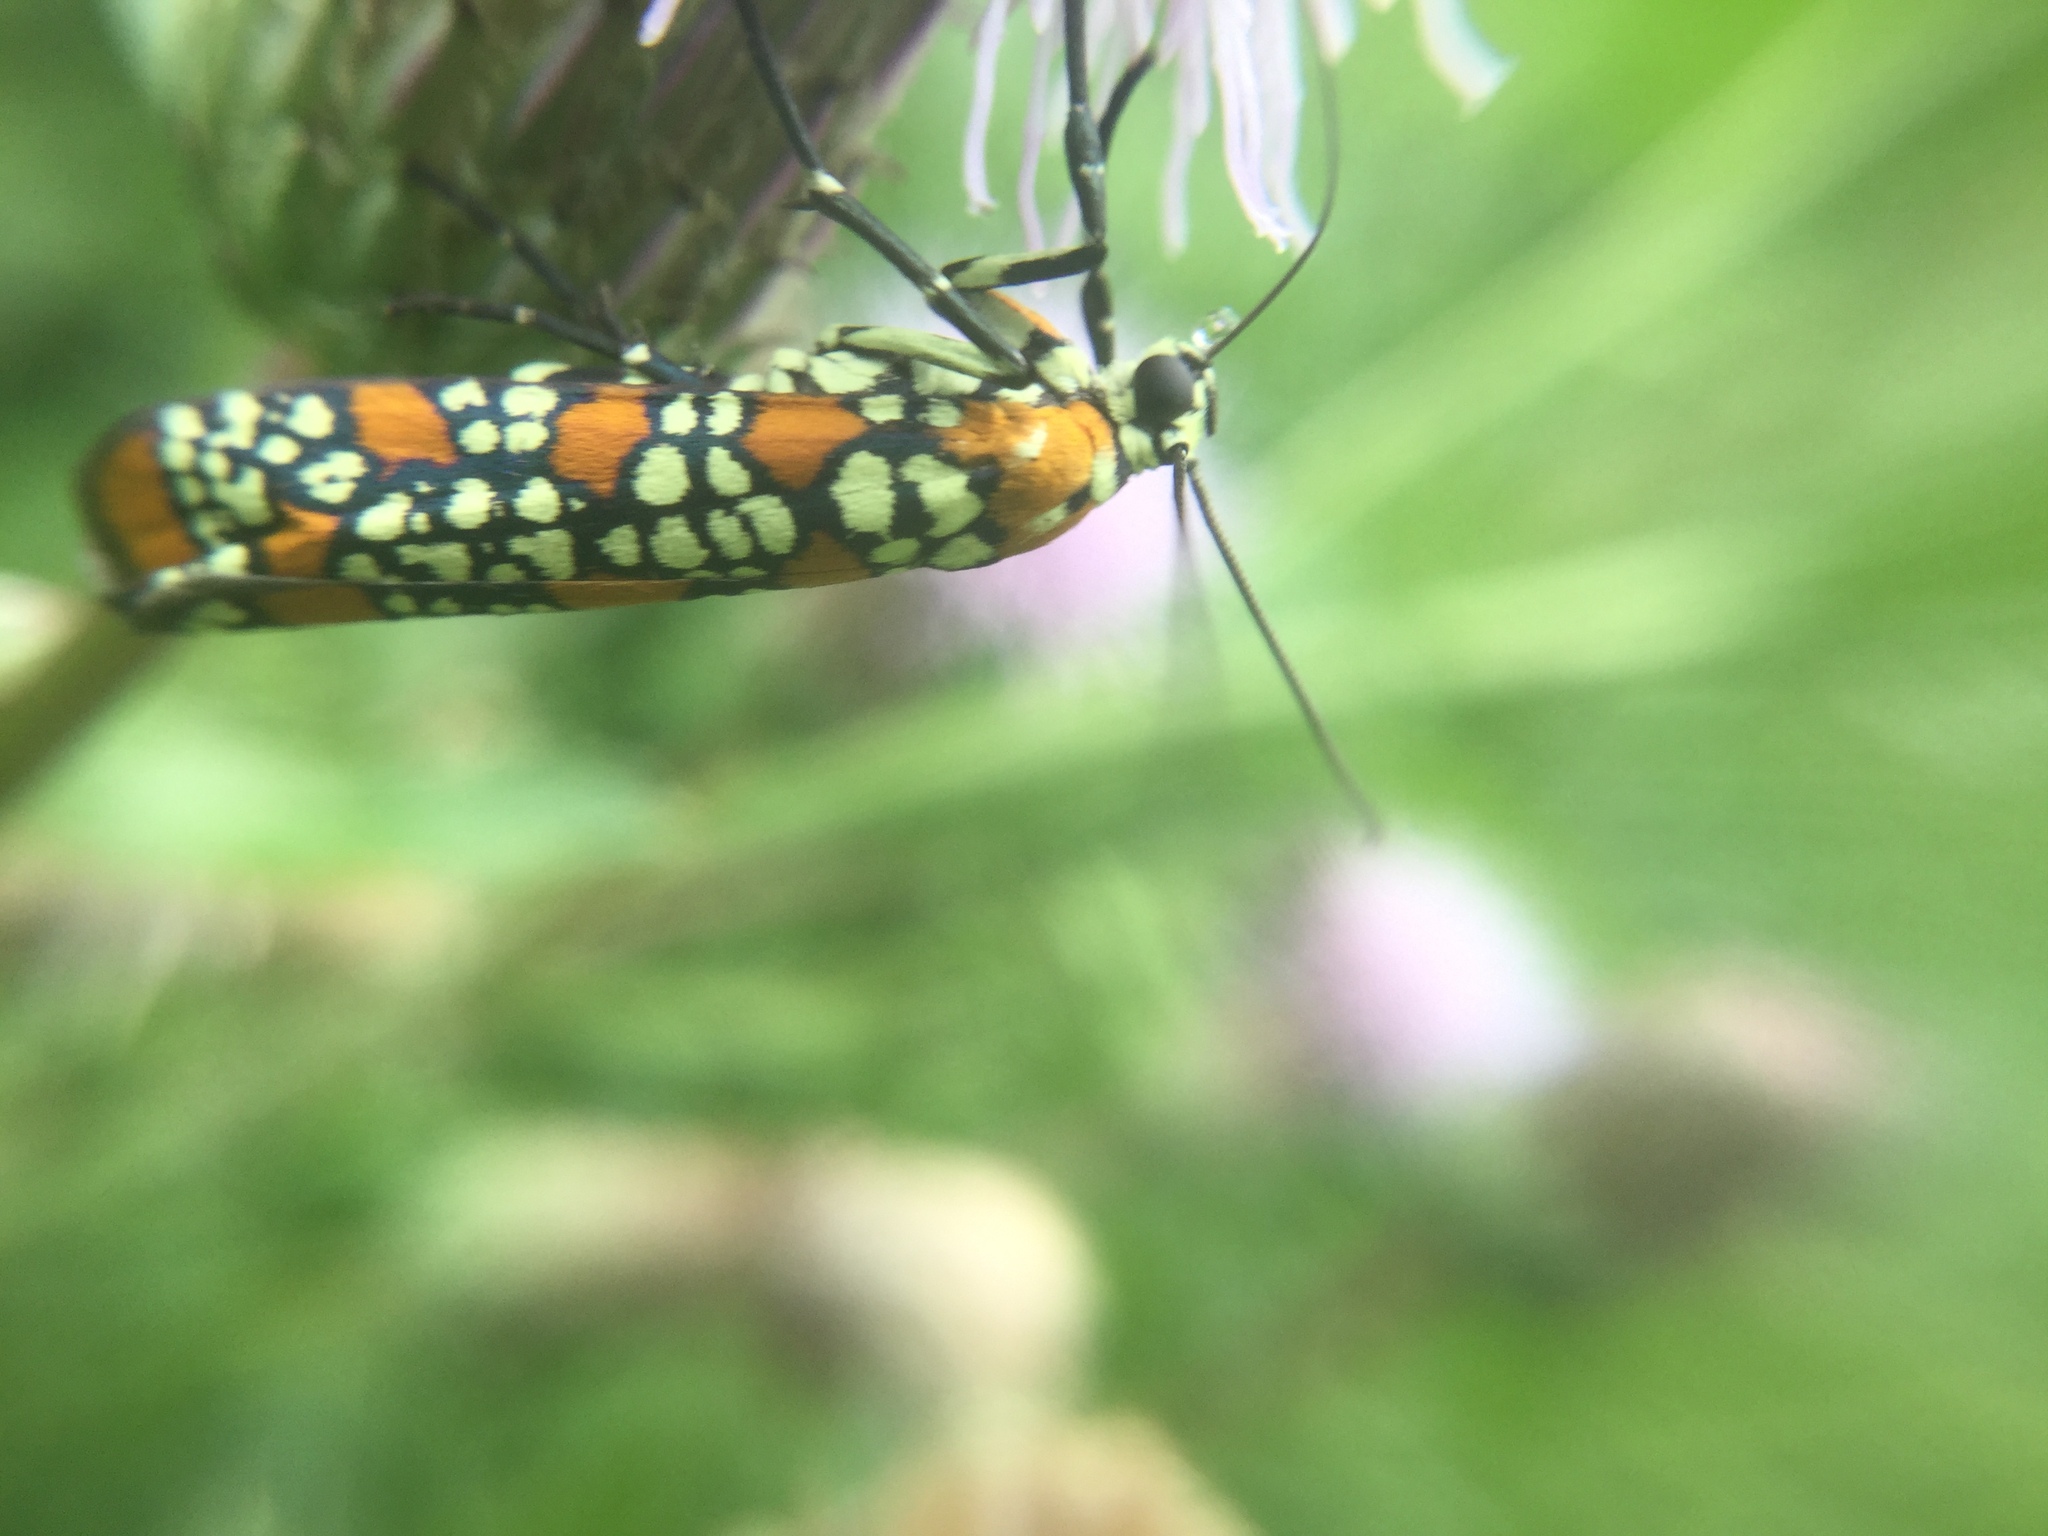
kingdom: Animalia
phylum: Arthropoda
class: Insecta
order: Lepidoptera
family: Attevidae
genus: Atteva
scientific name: Atteva punctella
